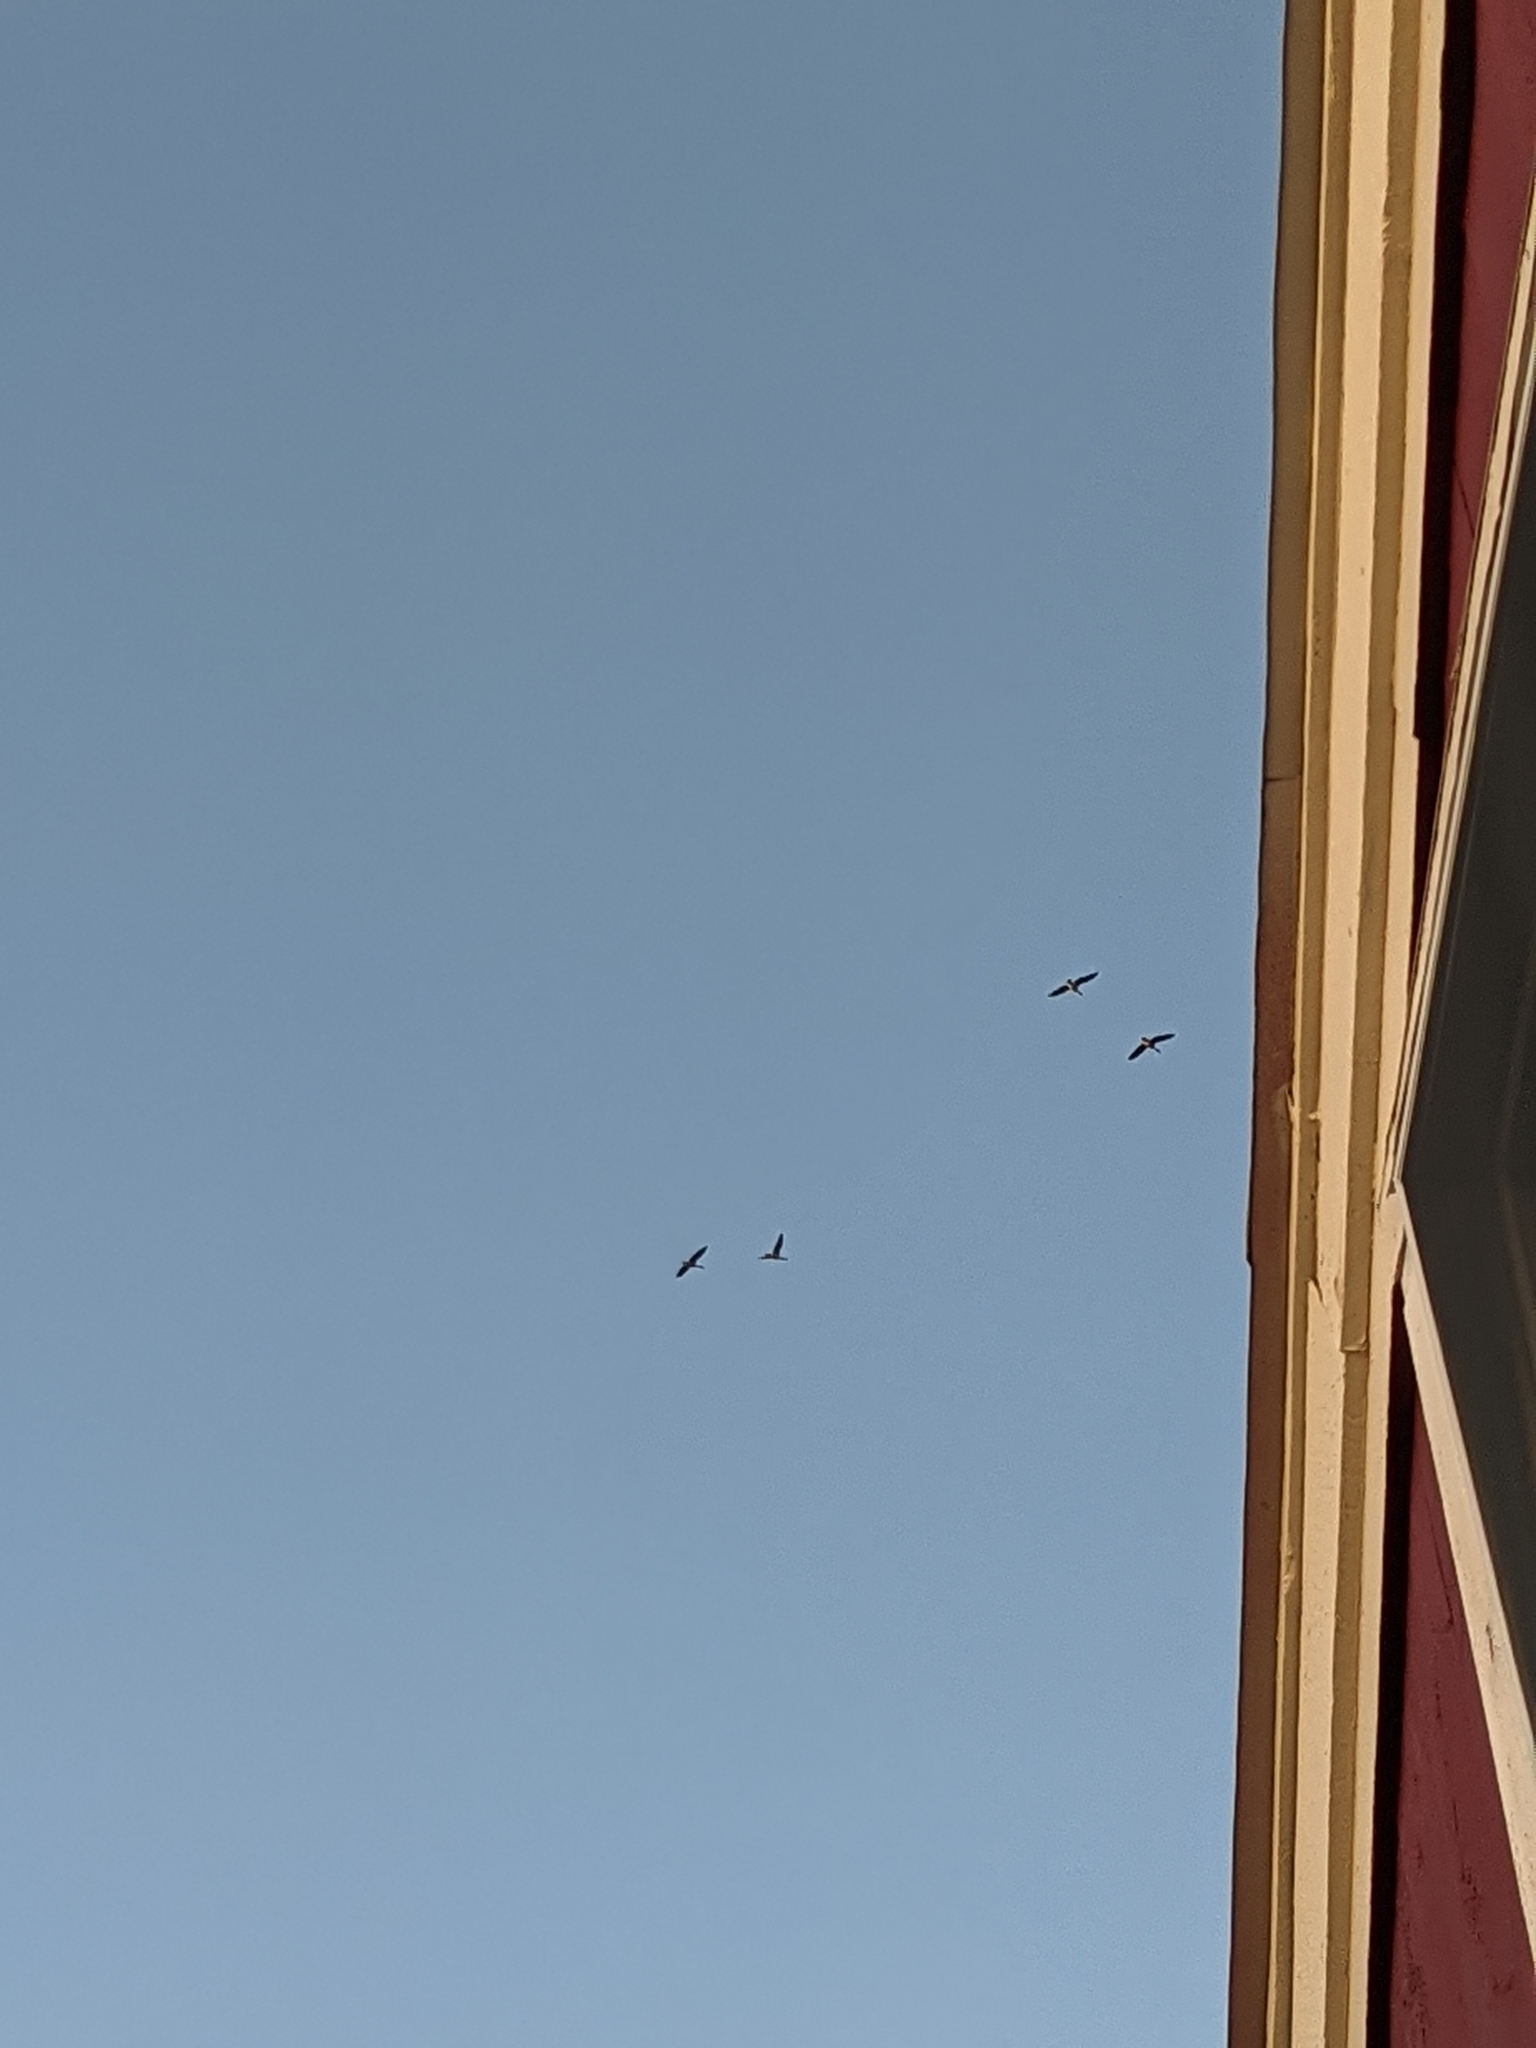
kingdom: Animalia
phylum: Chordata
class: Aves
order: Anseriformes
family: Anatidae
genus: Branta
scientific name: Branta canadensis
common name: Canada goose
